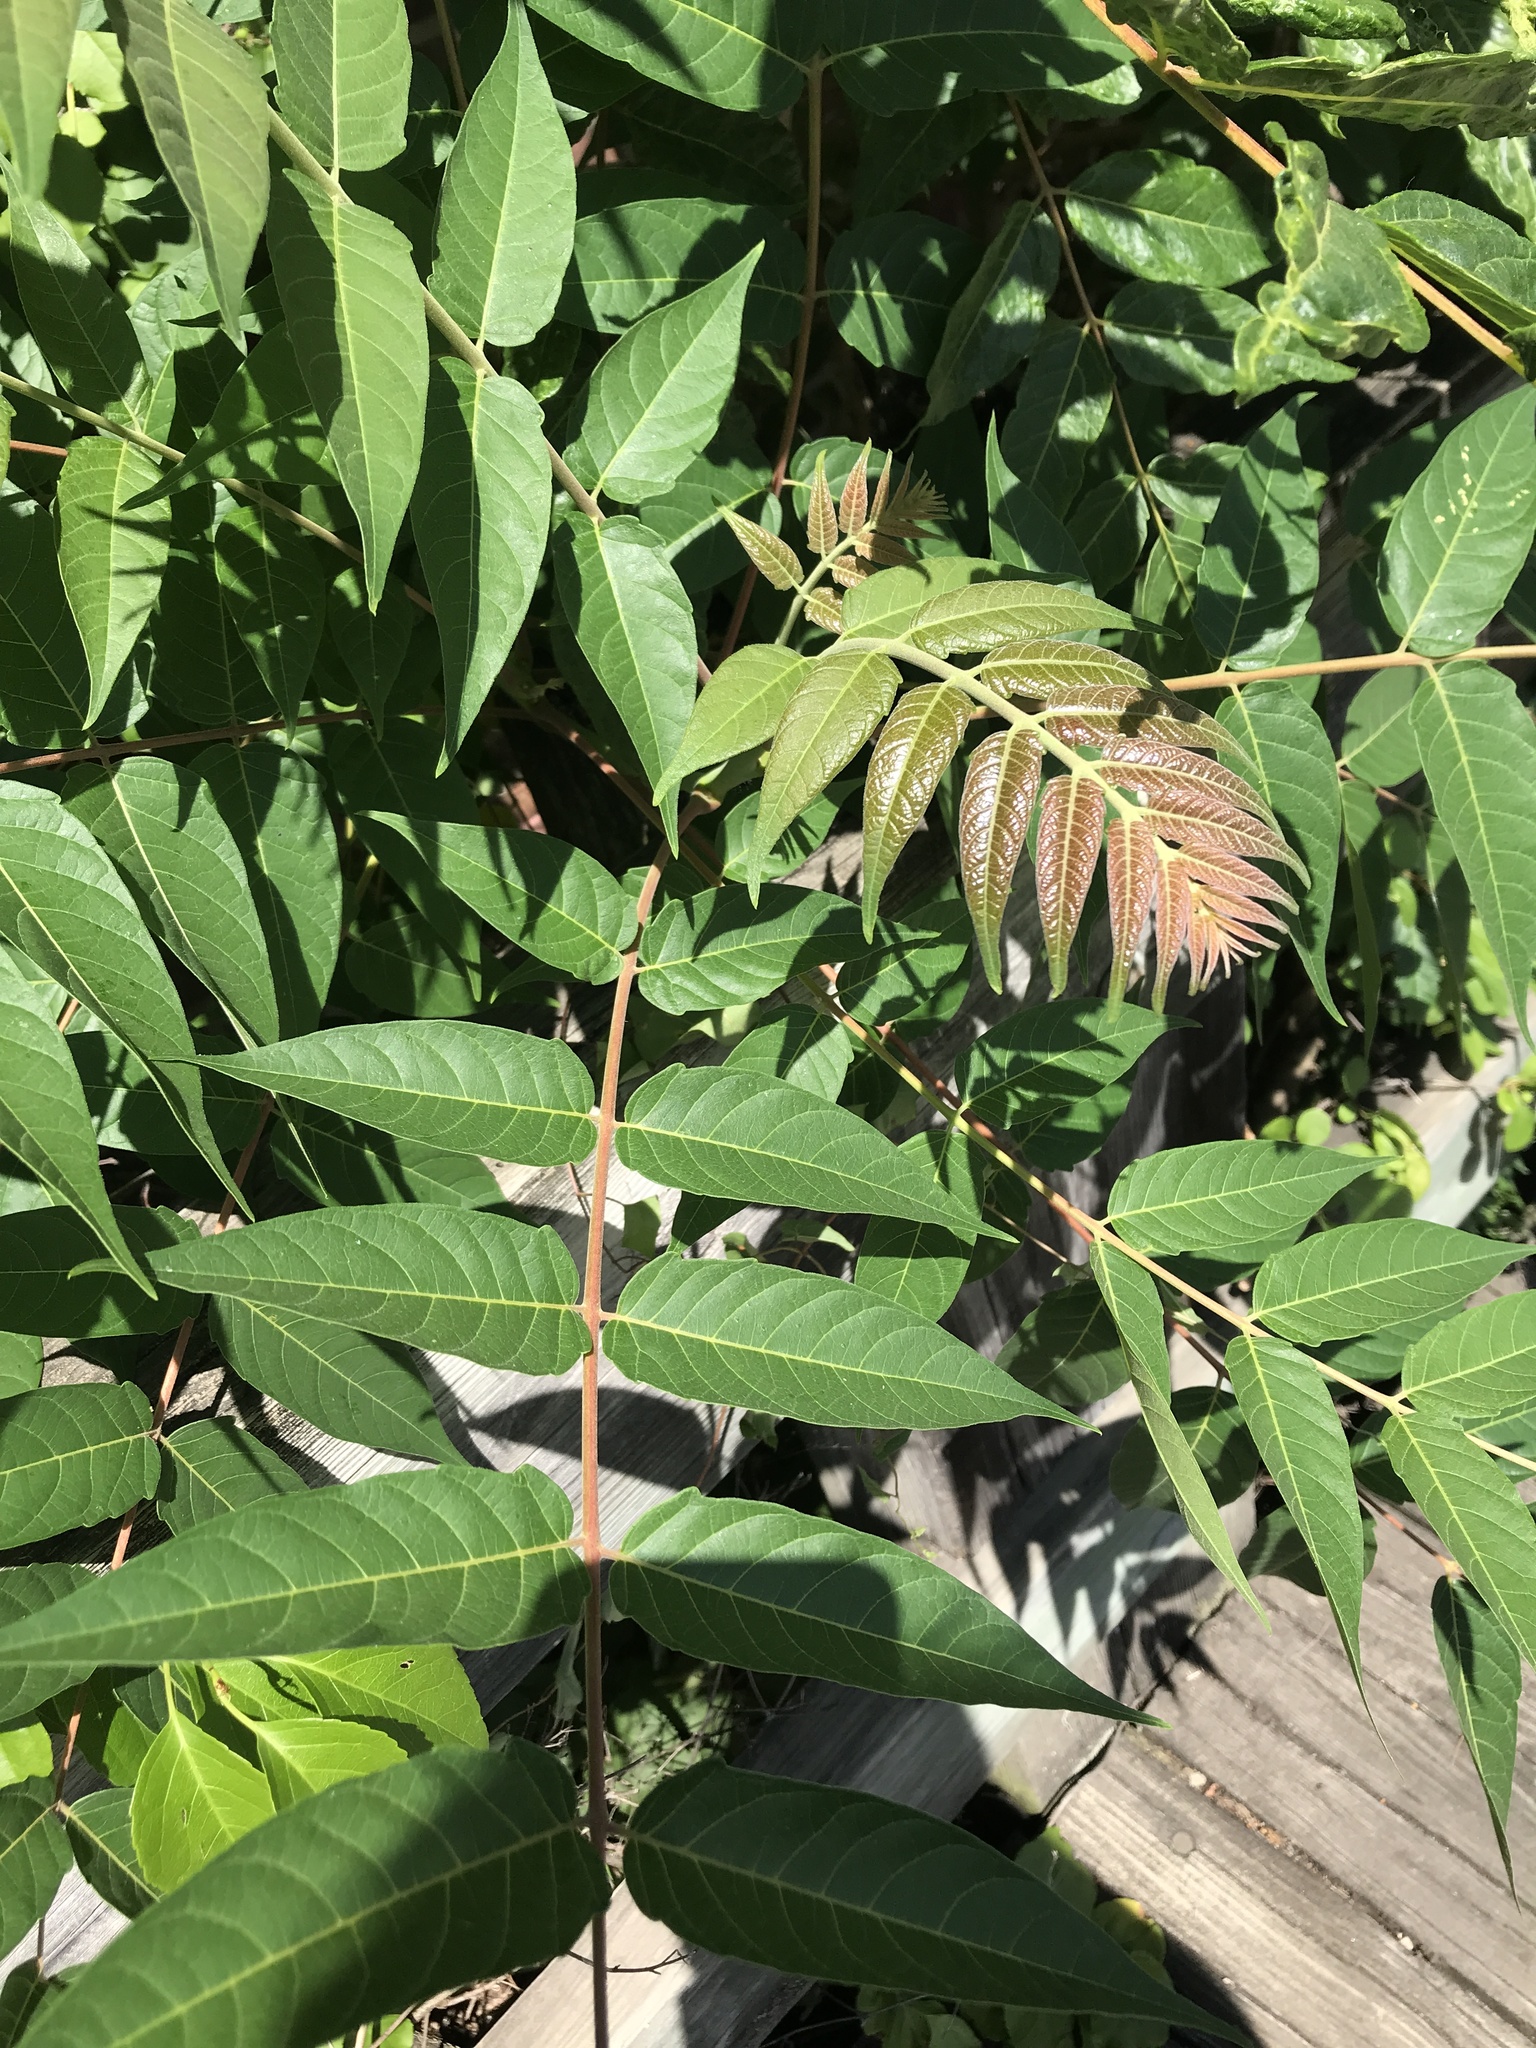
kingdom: Plantae
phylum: Tracheophyta
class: Magnoliopsida
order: Sapindales
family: Simaroubaceae
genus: Ailanthus
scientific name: Ailanthus altissima
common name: Tree-of-heaven
